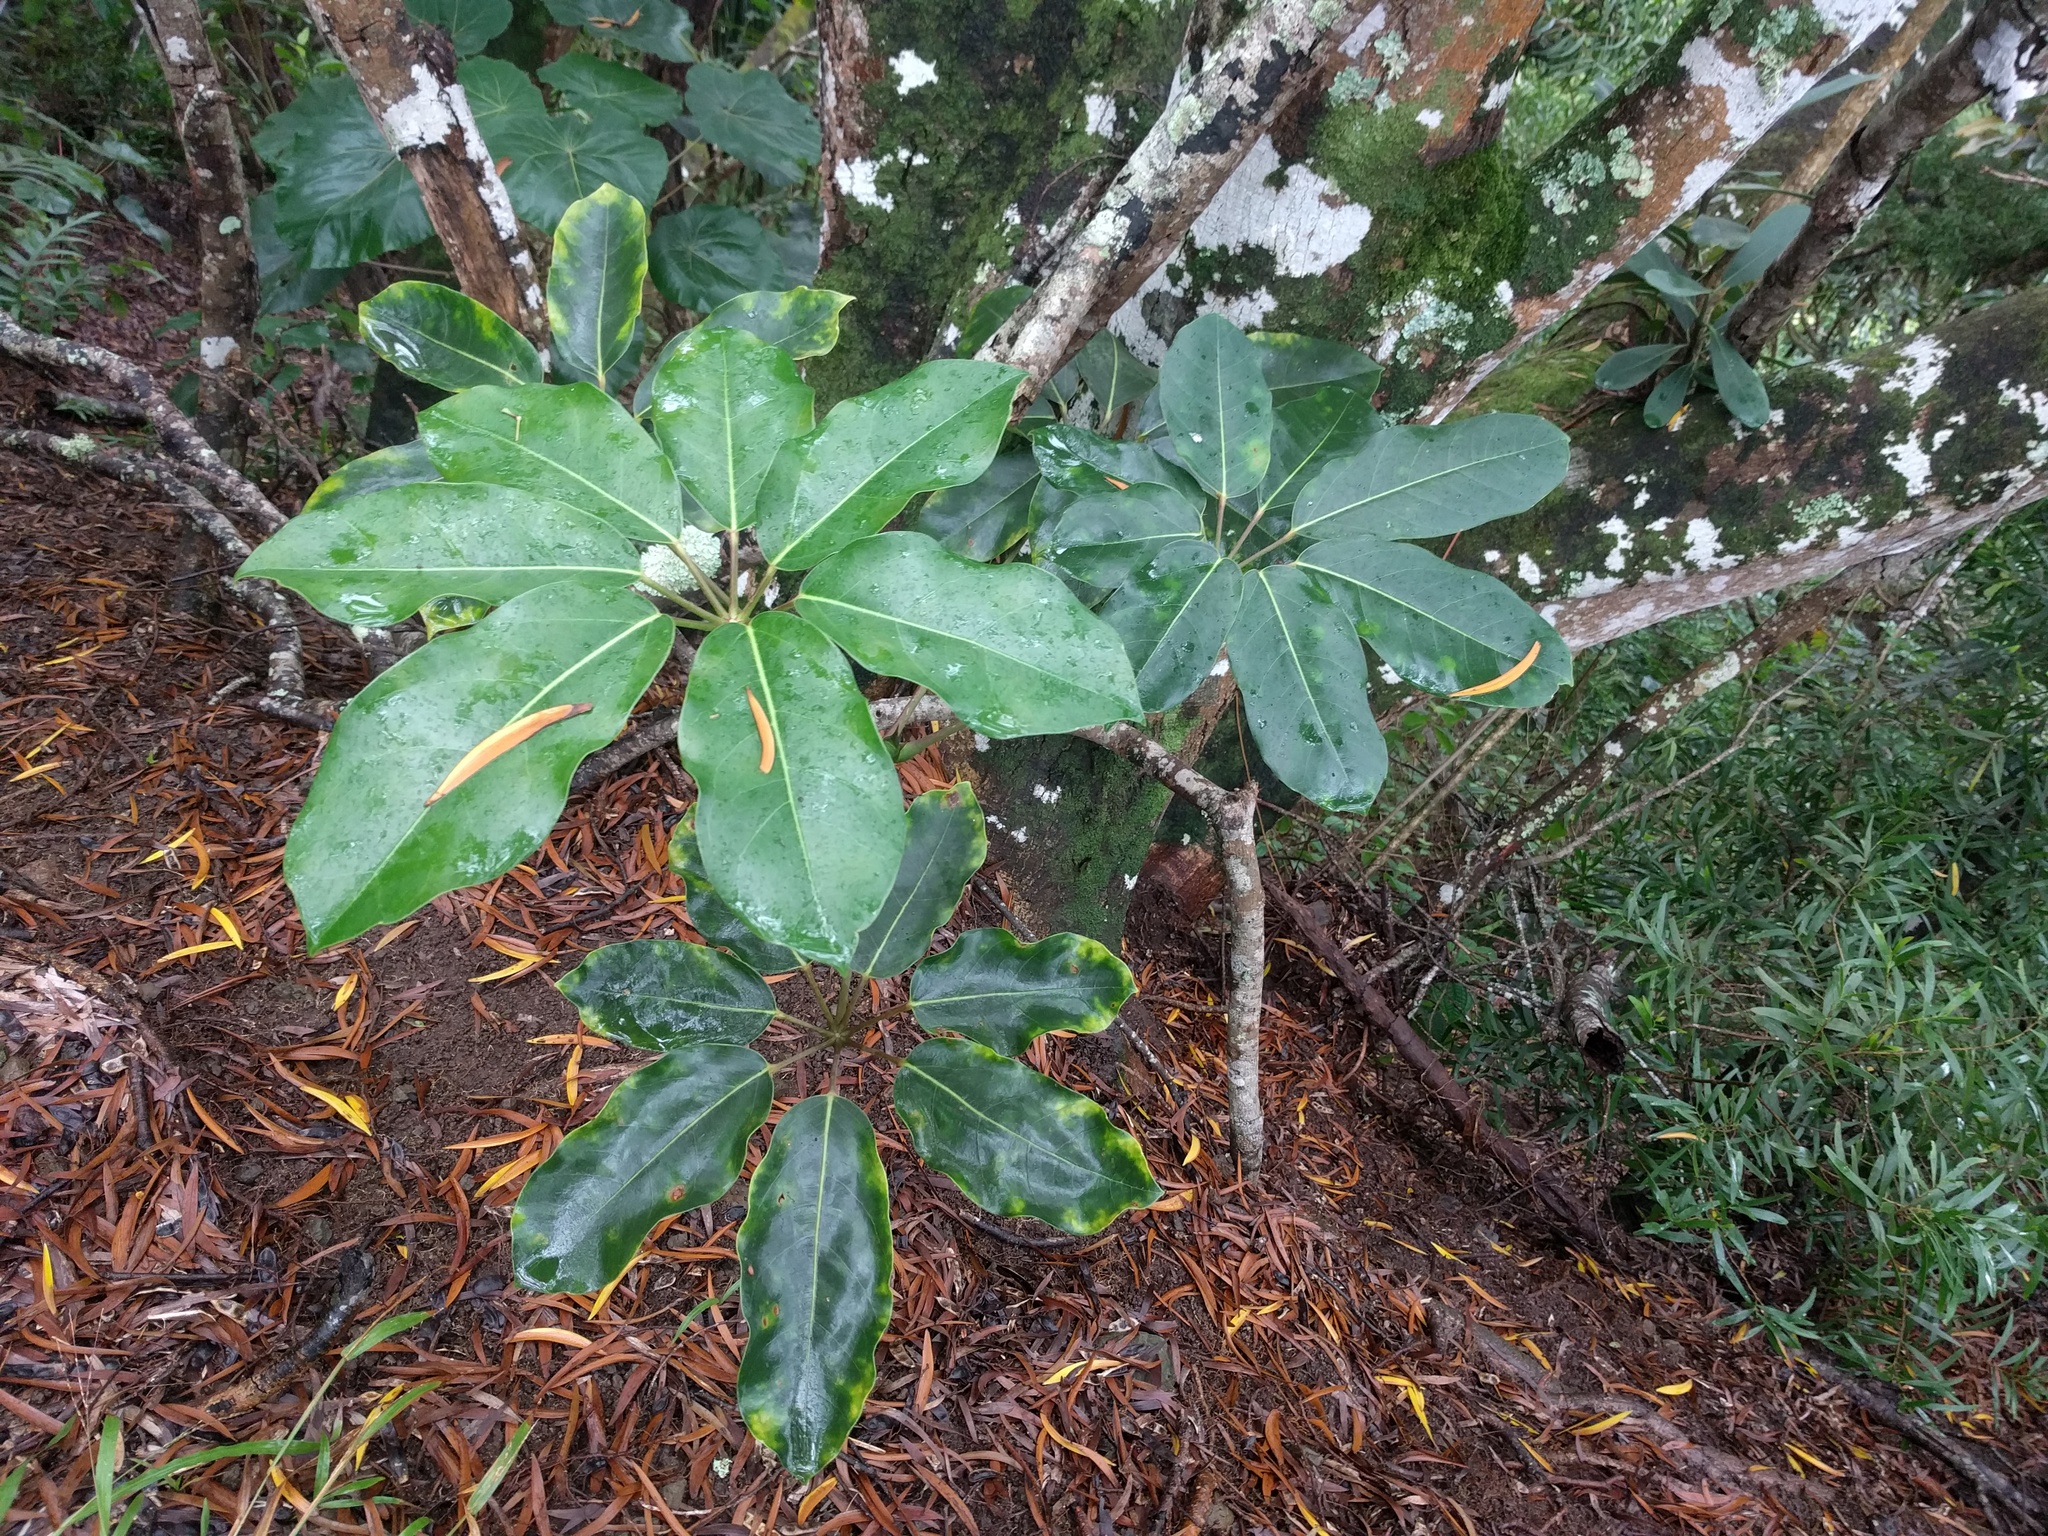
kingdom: Plantae
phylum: Tracheophyta
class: Magnoliopsida
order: Apiales
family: Araliaceae
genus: Heptapleurum
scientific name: Heptapleurum actinophyllum
